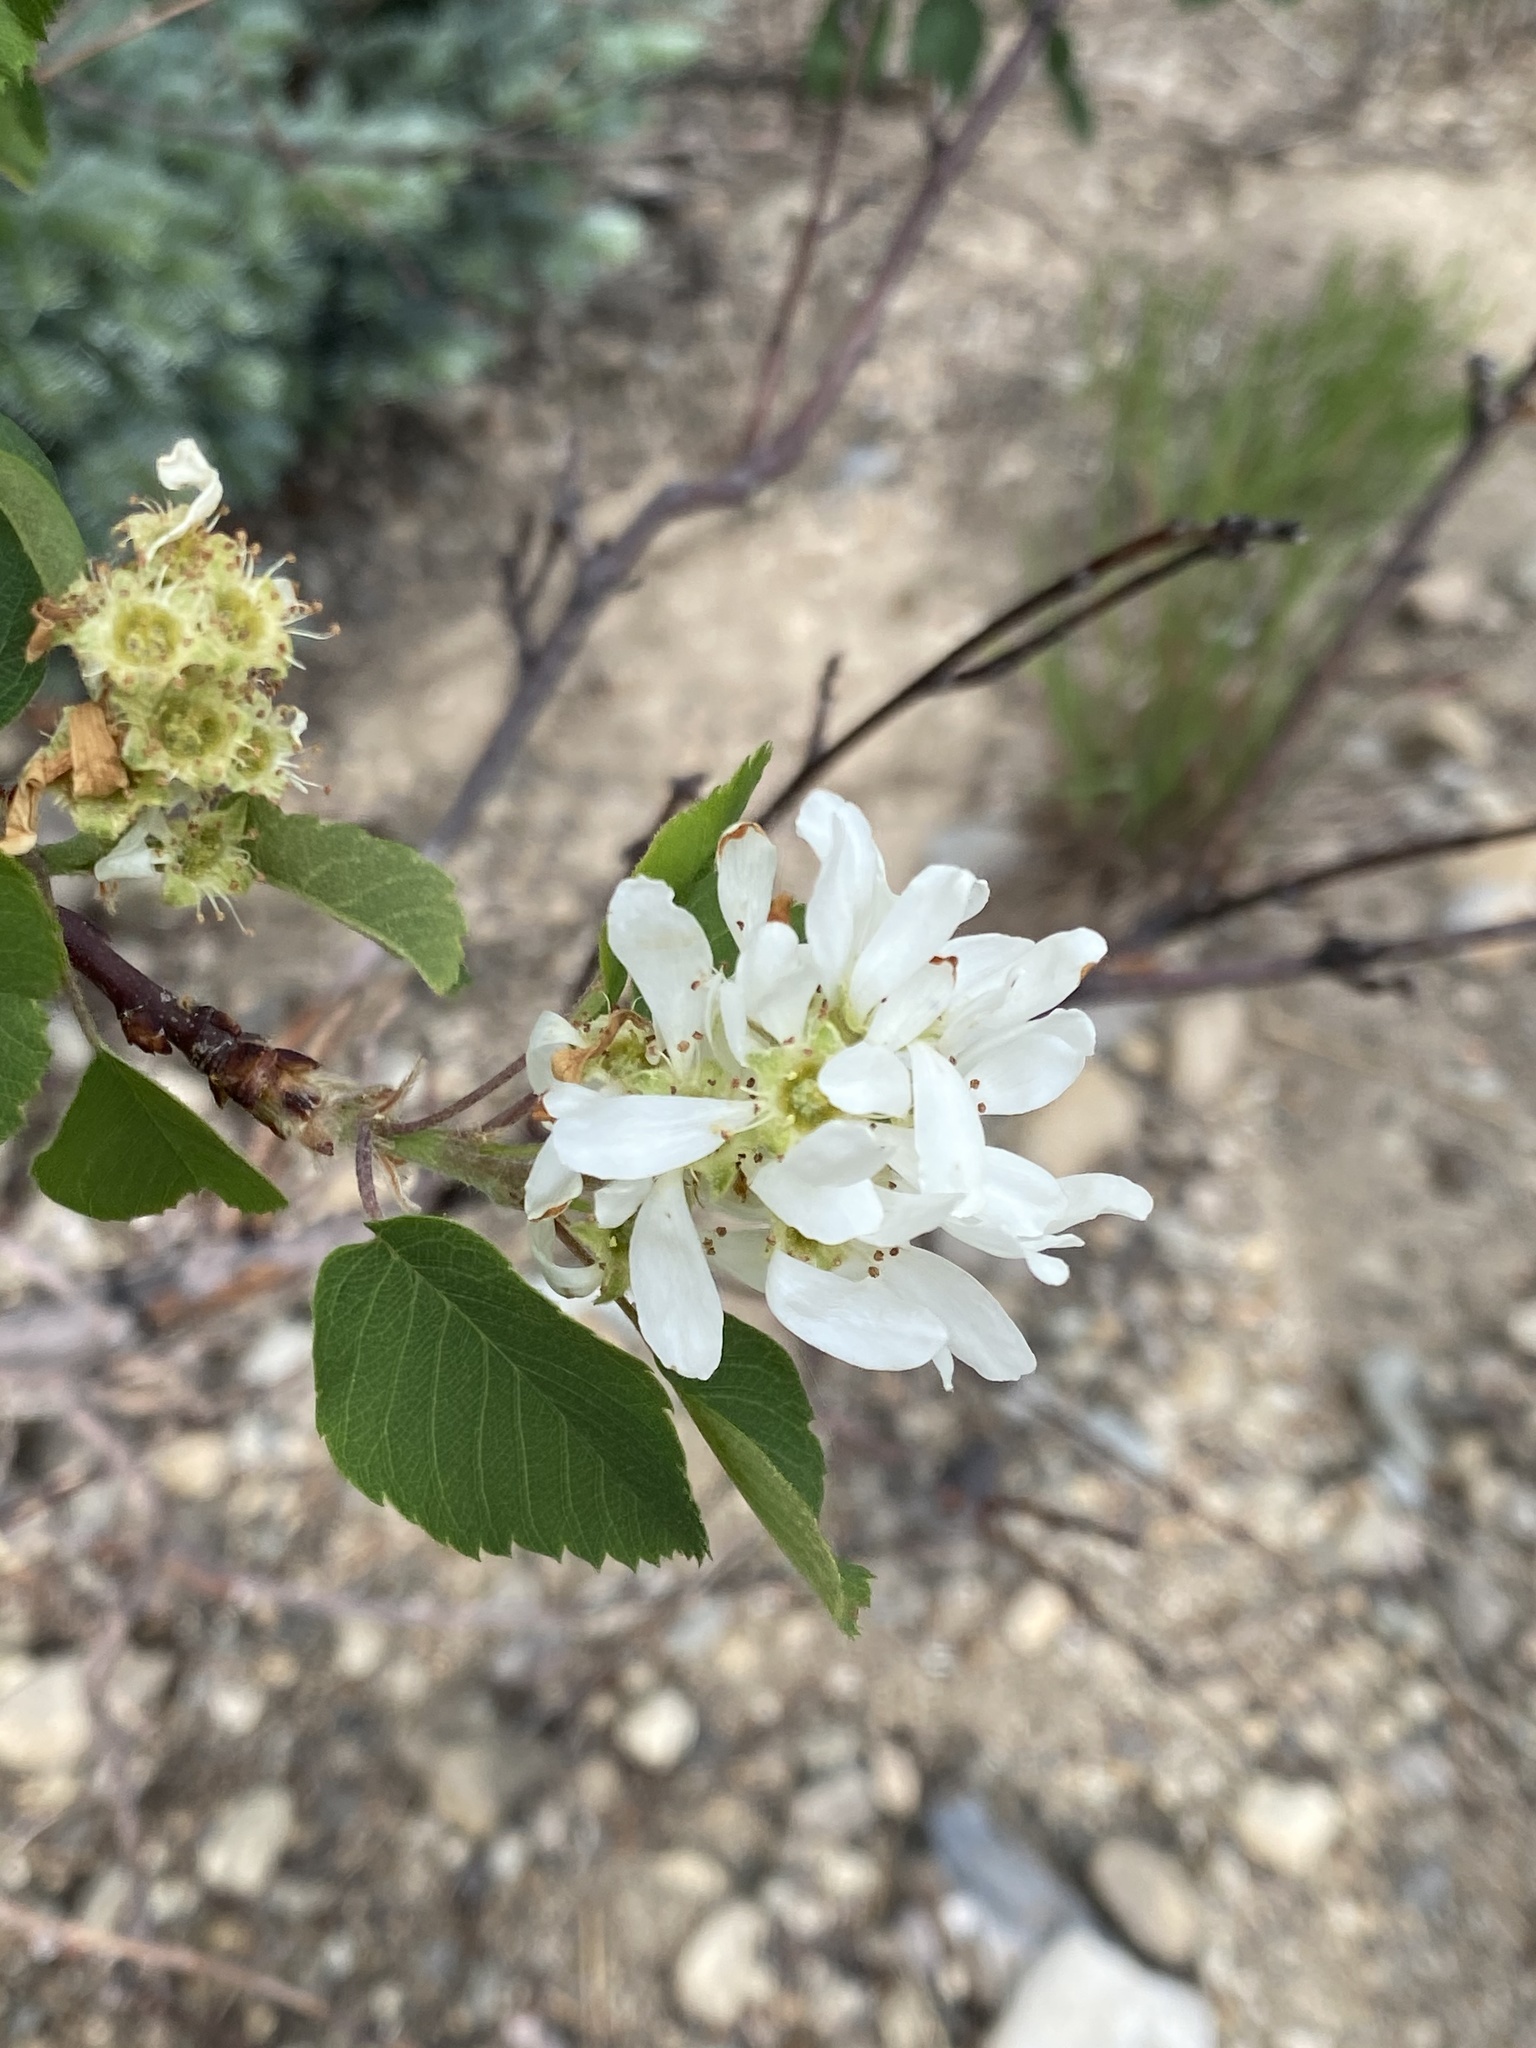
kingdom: Plantae
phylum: Tracheophyta
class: Magnoliopsida
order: Rosales
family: Rosaceae
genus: Amelanchier
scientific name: Amelanchier alnifolia
